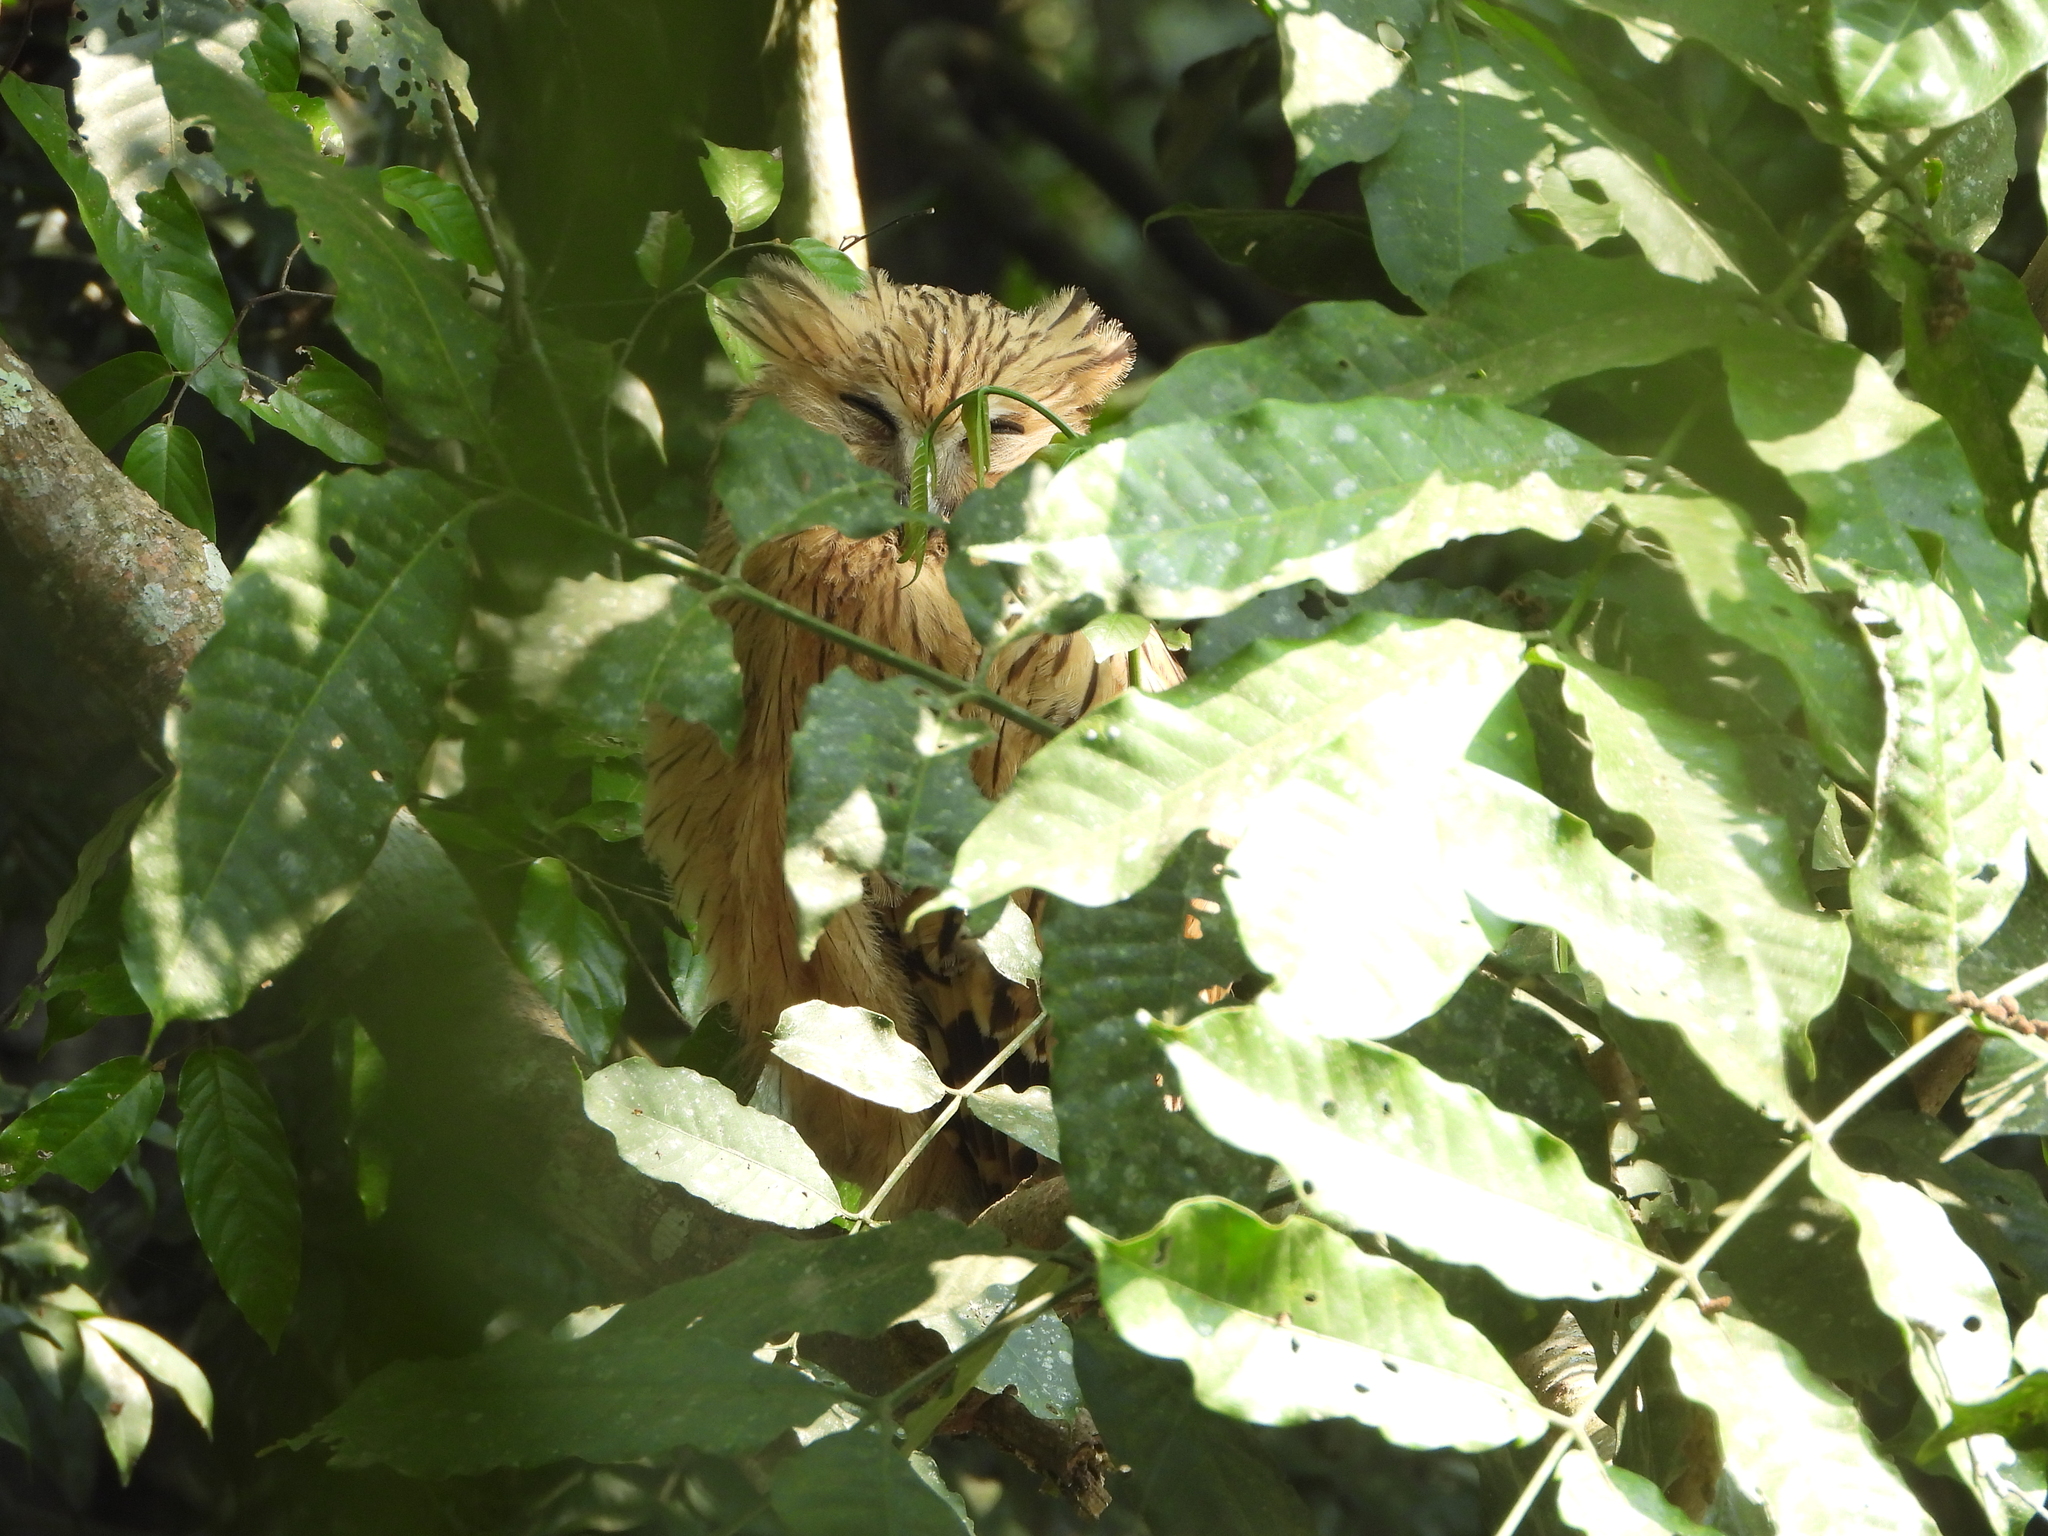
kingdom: Animalia
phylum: Chordata
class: Aves
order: Strigiformes
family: Strigidae
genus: Ketupa
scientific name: Ketupa ketupu
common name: Buffy fish-owl
